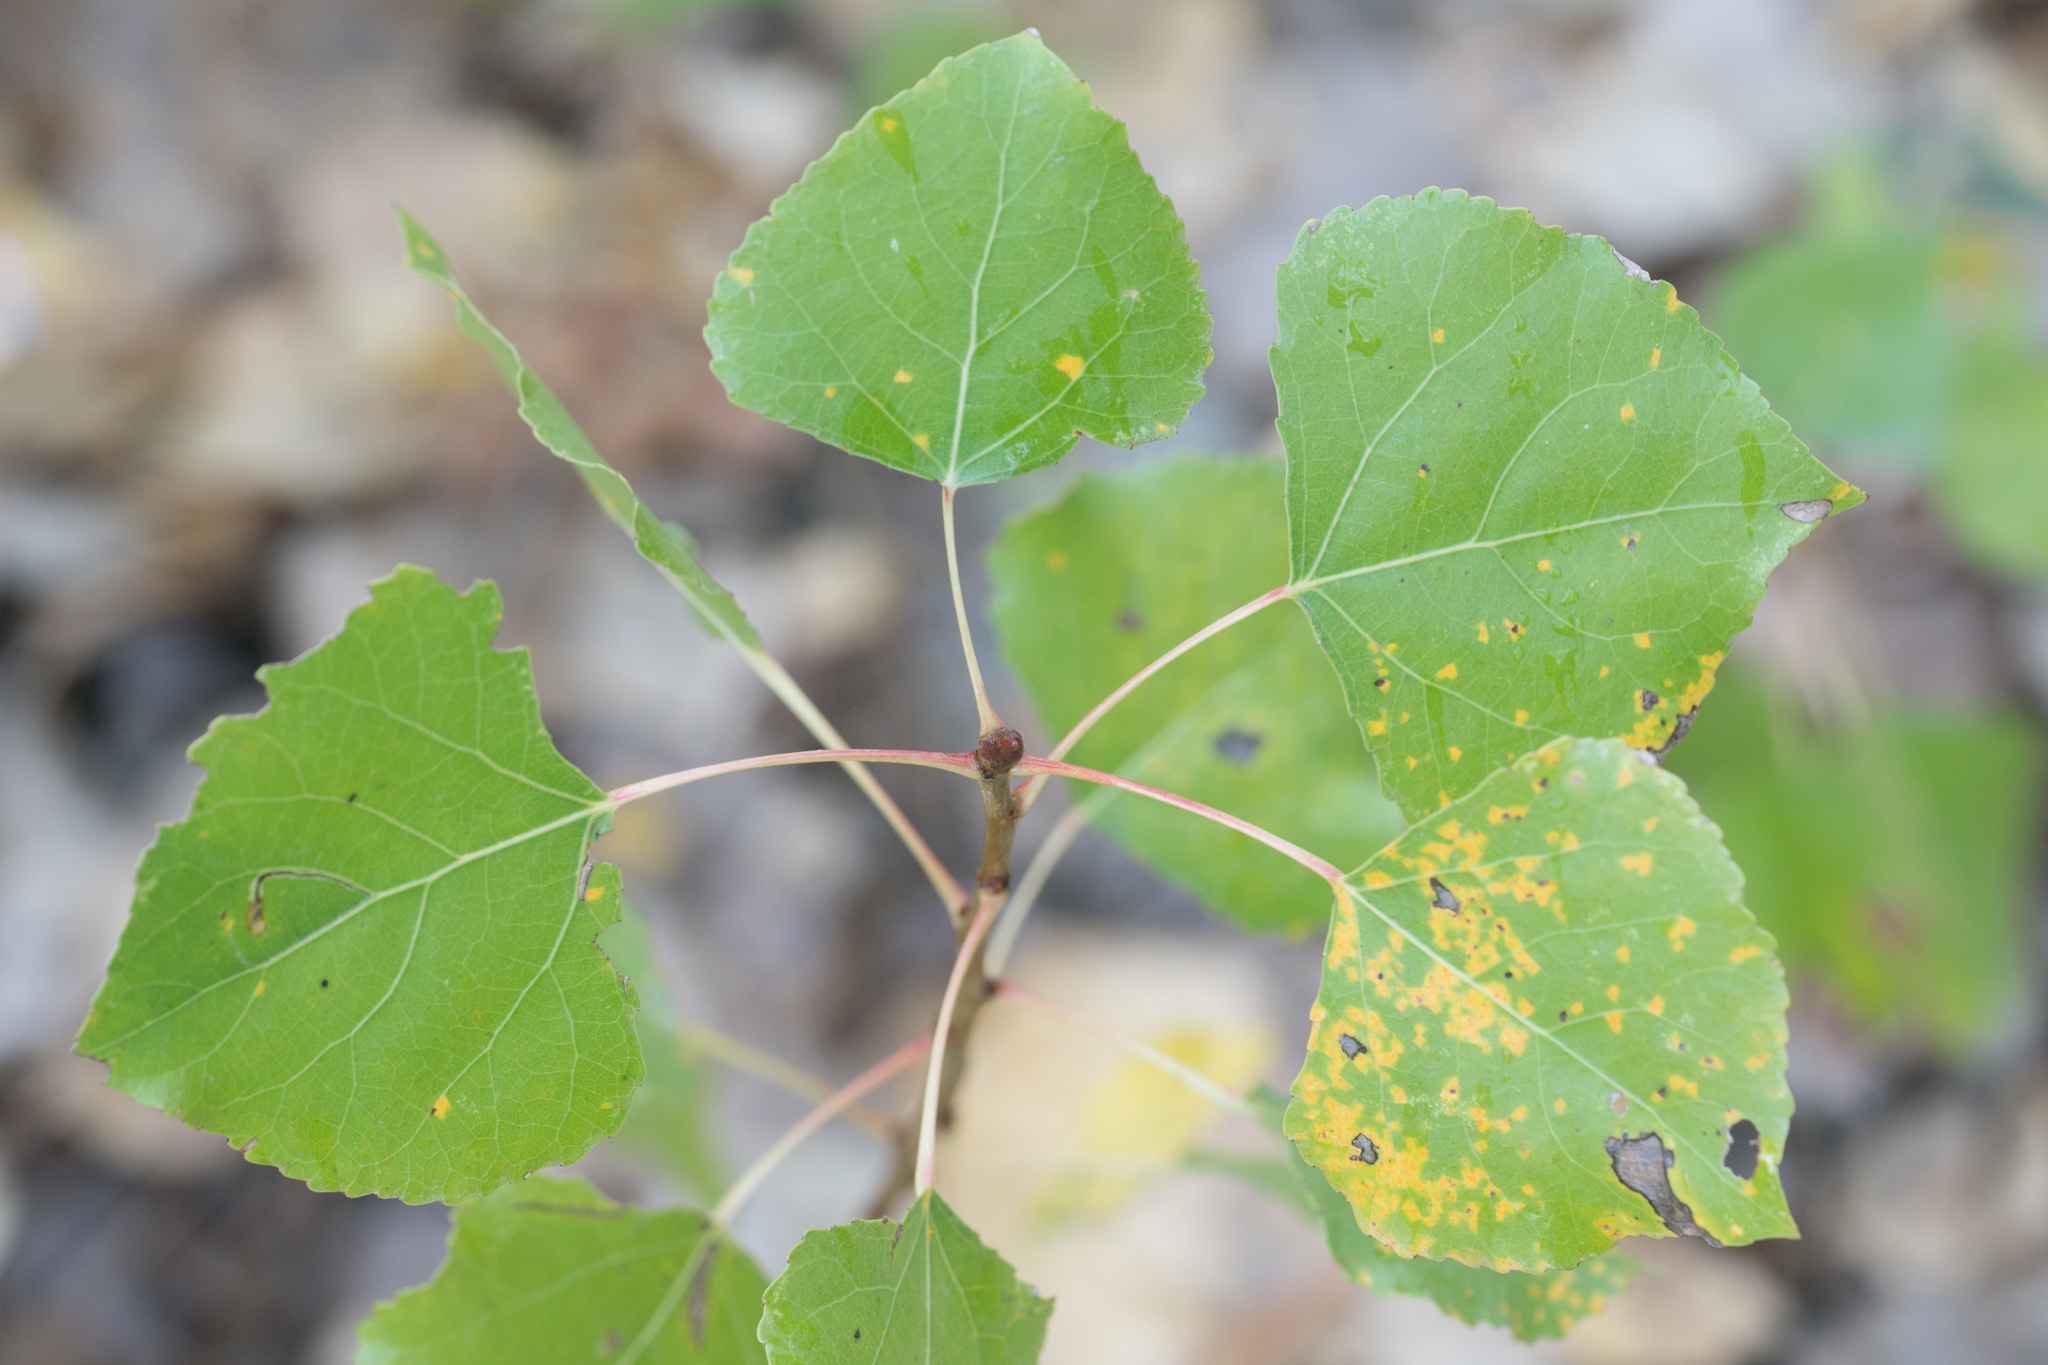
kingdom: Plantae
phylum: Tracheophyta
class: Magnoliopsida
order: Malpighiales
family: Salicaceae
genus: Populus
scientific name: Populus fremontii
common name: Fremont's cottonwood
